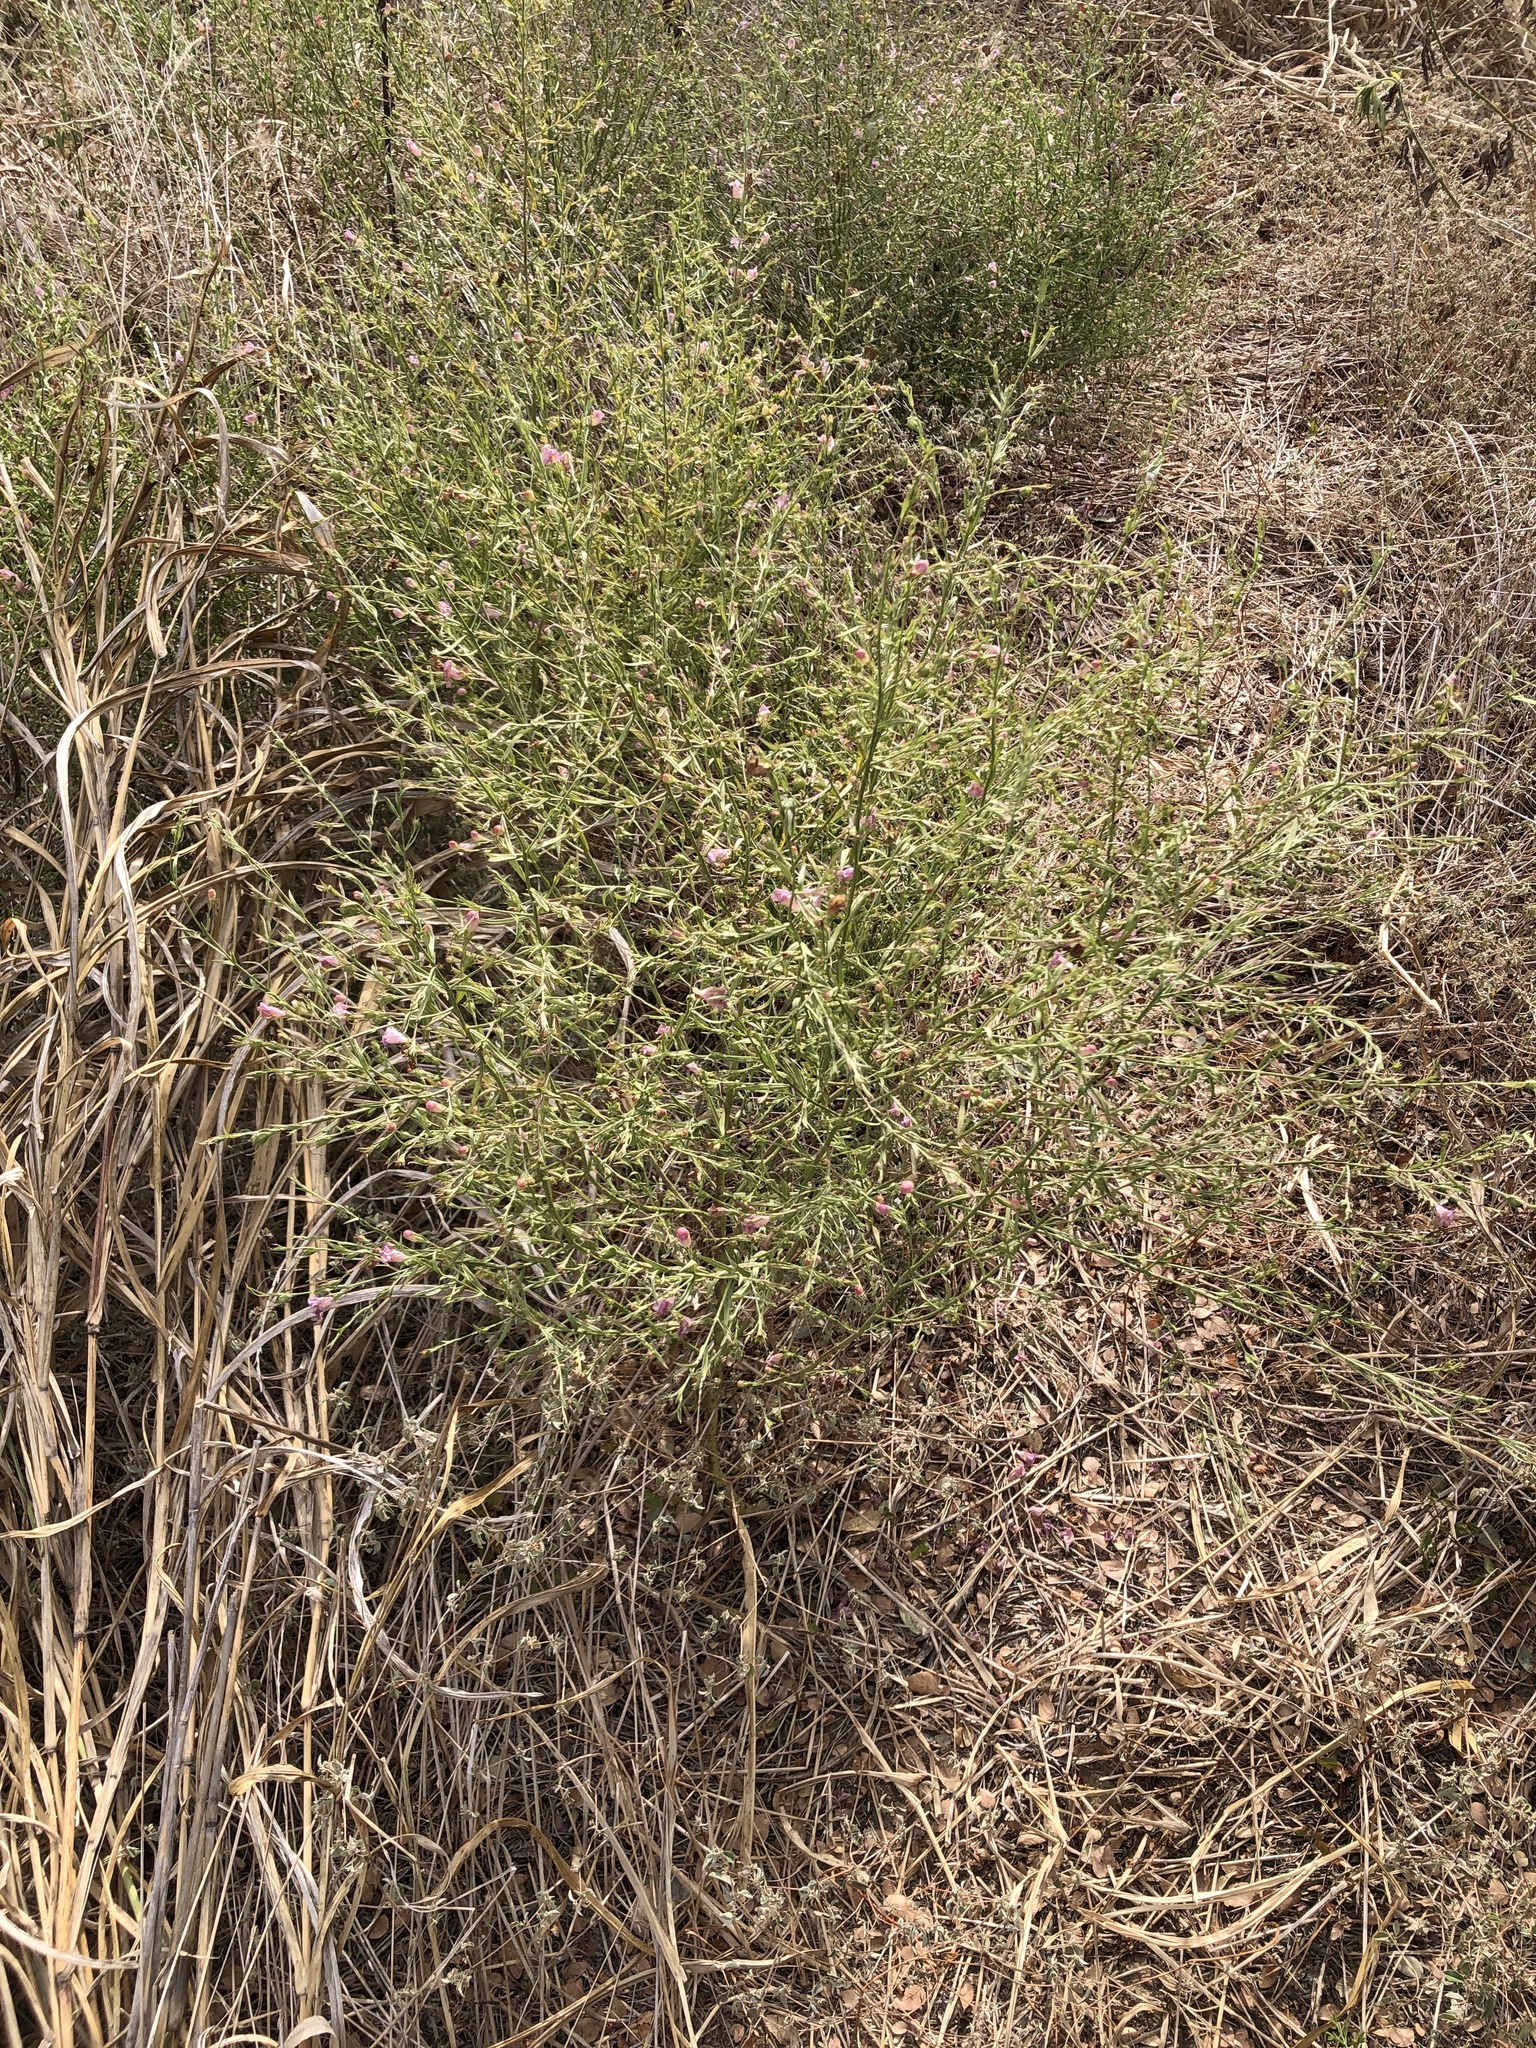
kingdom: Plantae
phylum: Tracheophyta
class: Magnoliopsida
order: Lamiales
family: Orobanchaceae
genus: Agalinis
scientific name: Agalinis heterophylla
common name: Prairie agalinis
